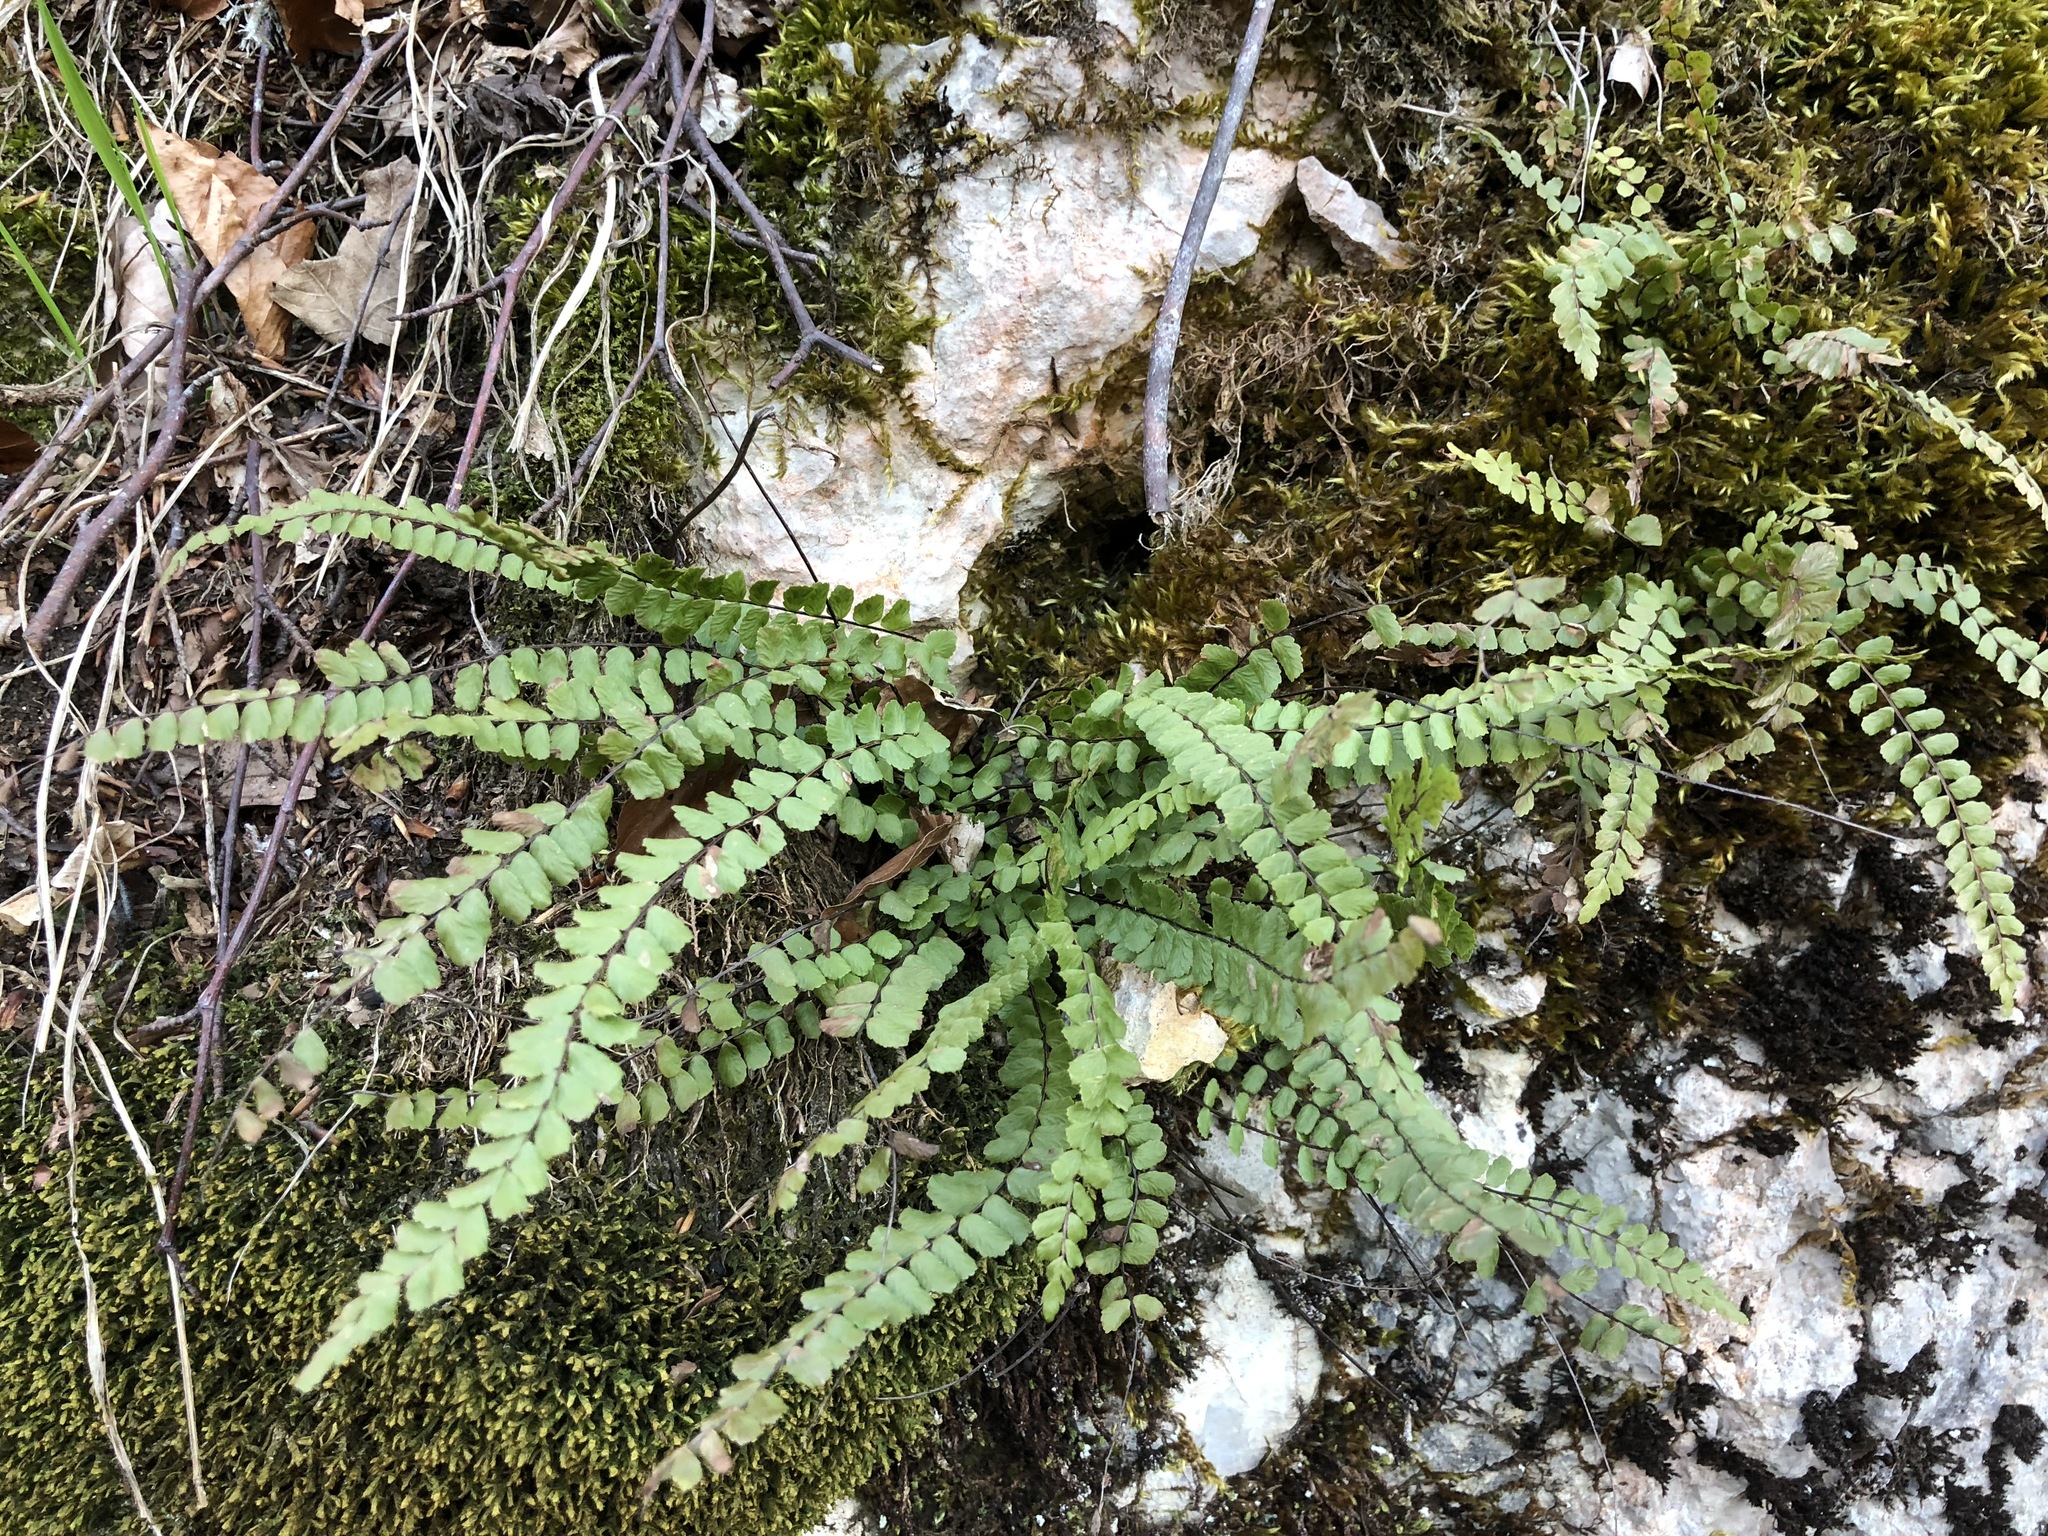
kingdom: Plantae
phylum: Tracheophyta
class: Polypodiopsida
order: Polypodiales
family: Aspleniaceae
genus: Asplenium
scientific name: Asplenium trichomanes
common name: Maidenhair spleenwort
